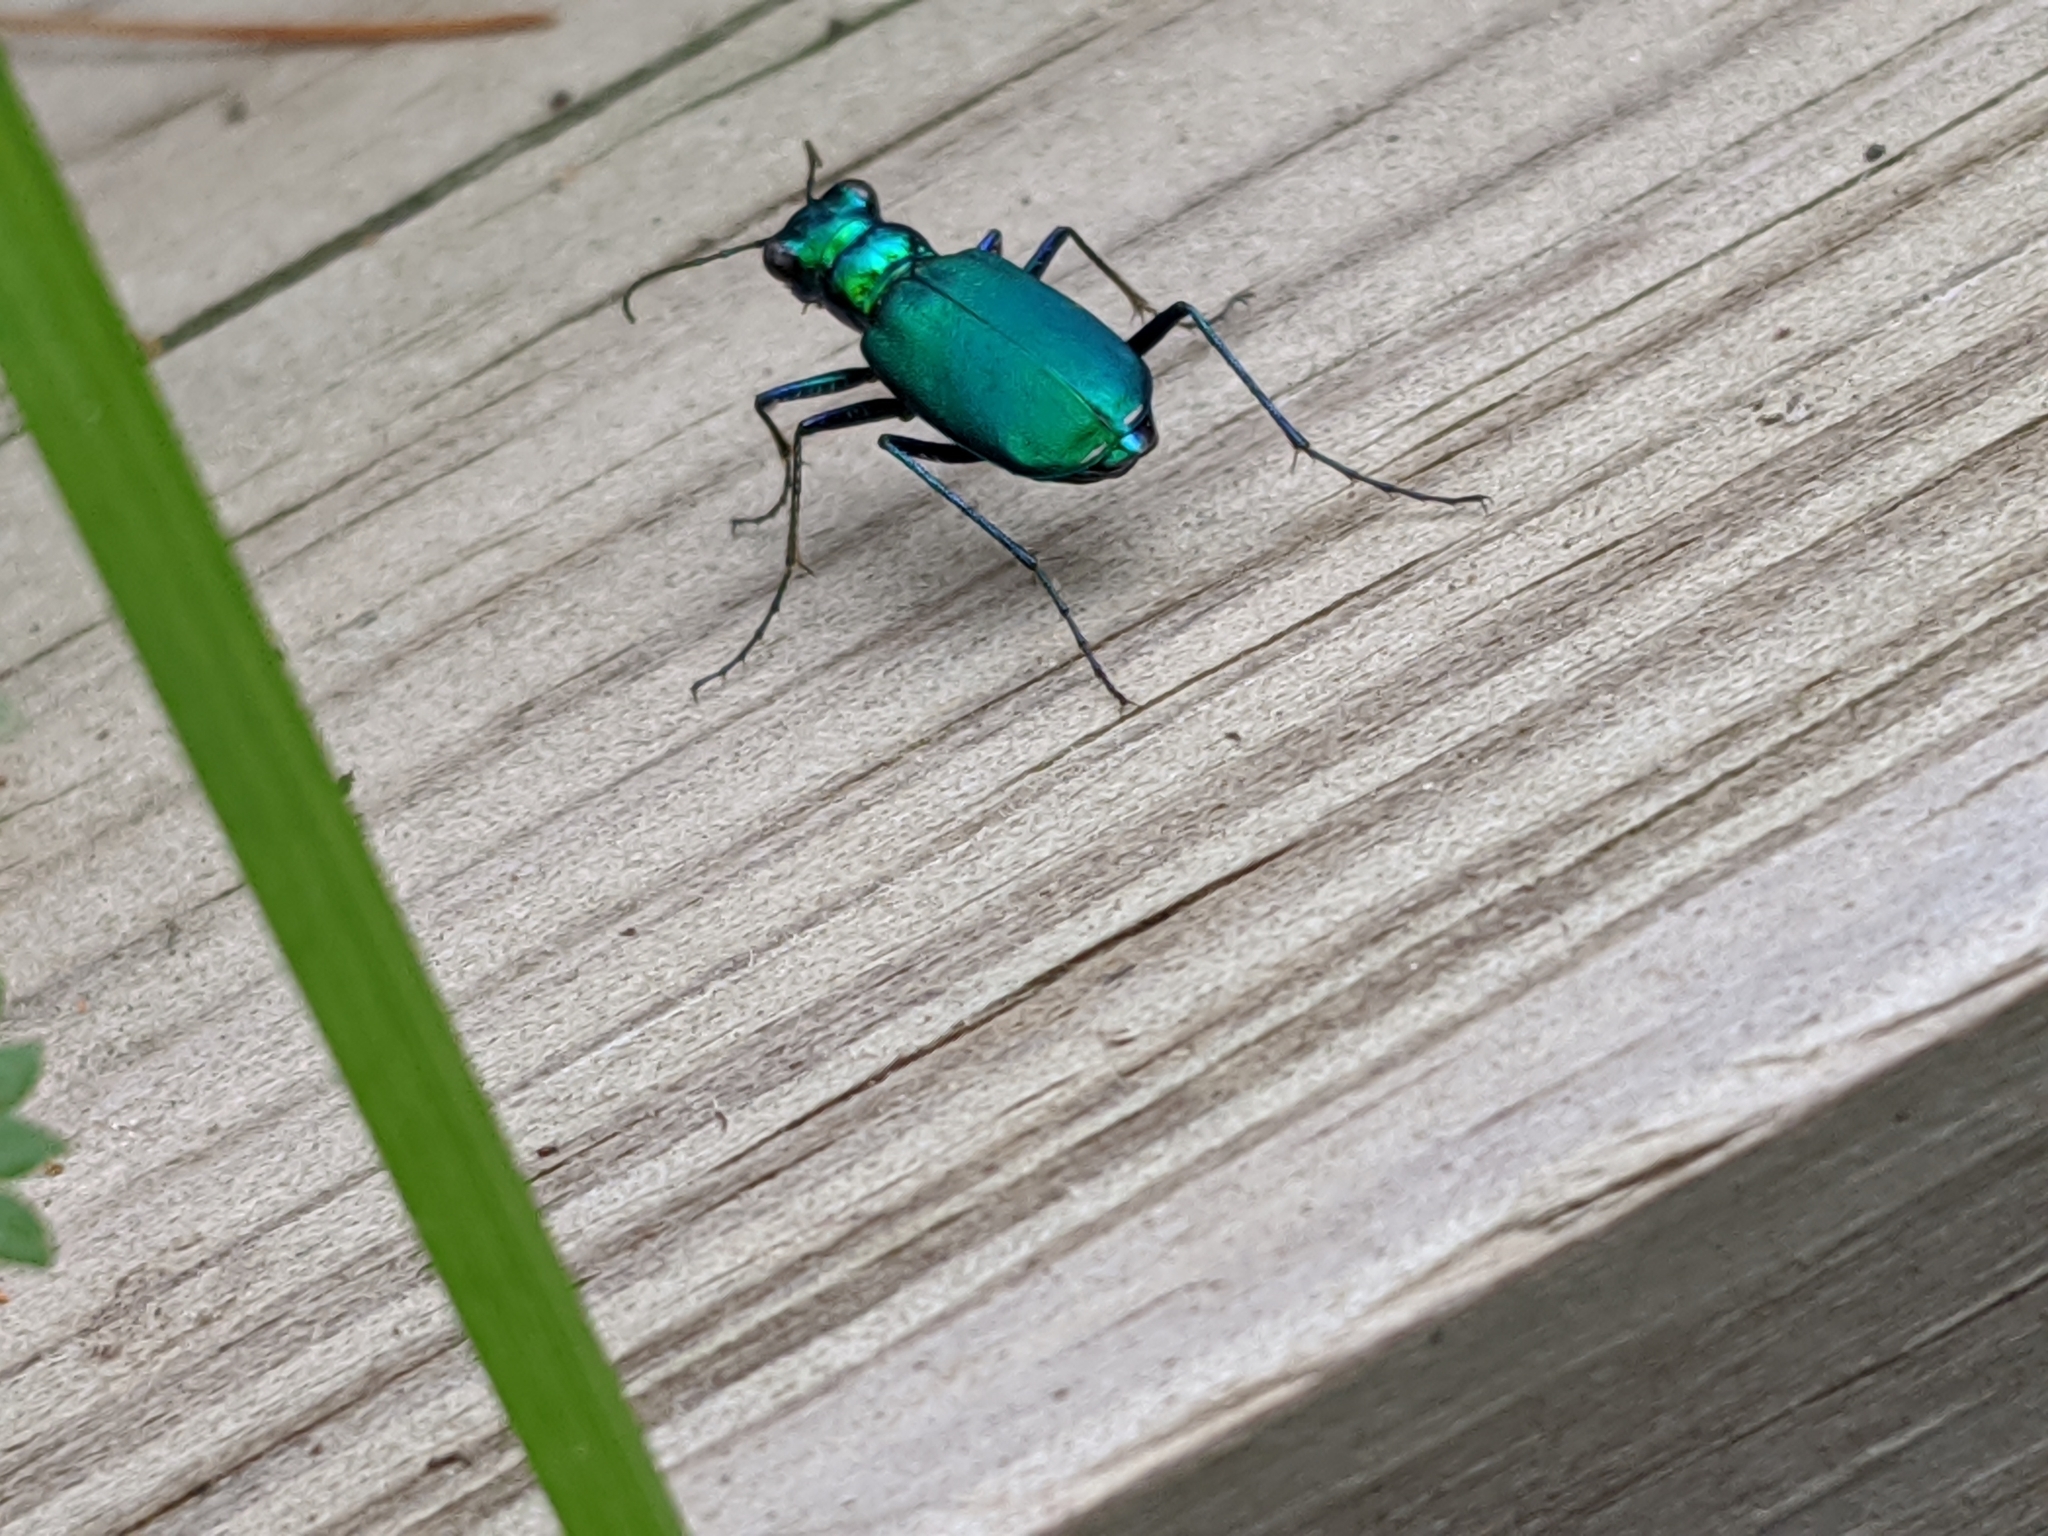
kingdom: Animalia
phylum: Arthropoda
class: Insecta
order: Coleoptera
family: Carabidae
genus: Cicindela
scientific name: Cicindela sexguttata
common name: Six-spotted tiger beetle
